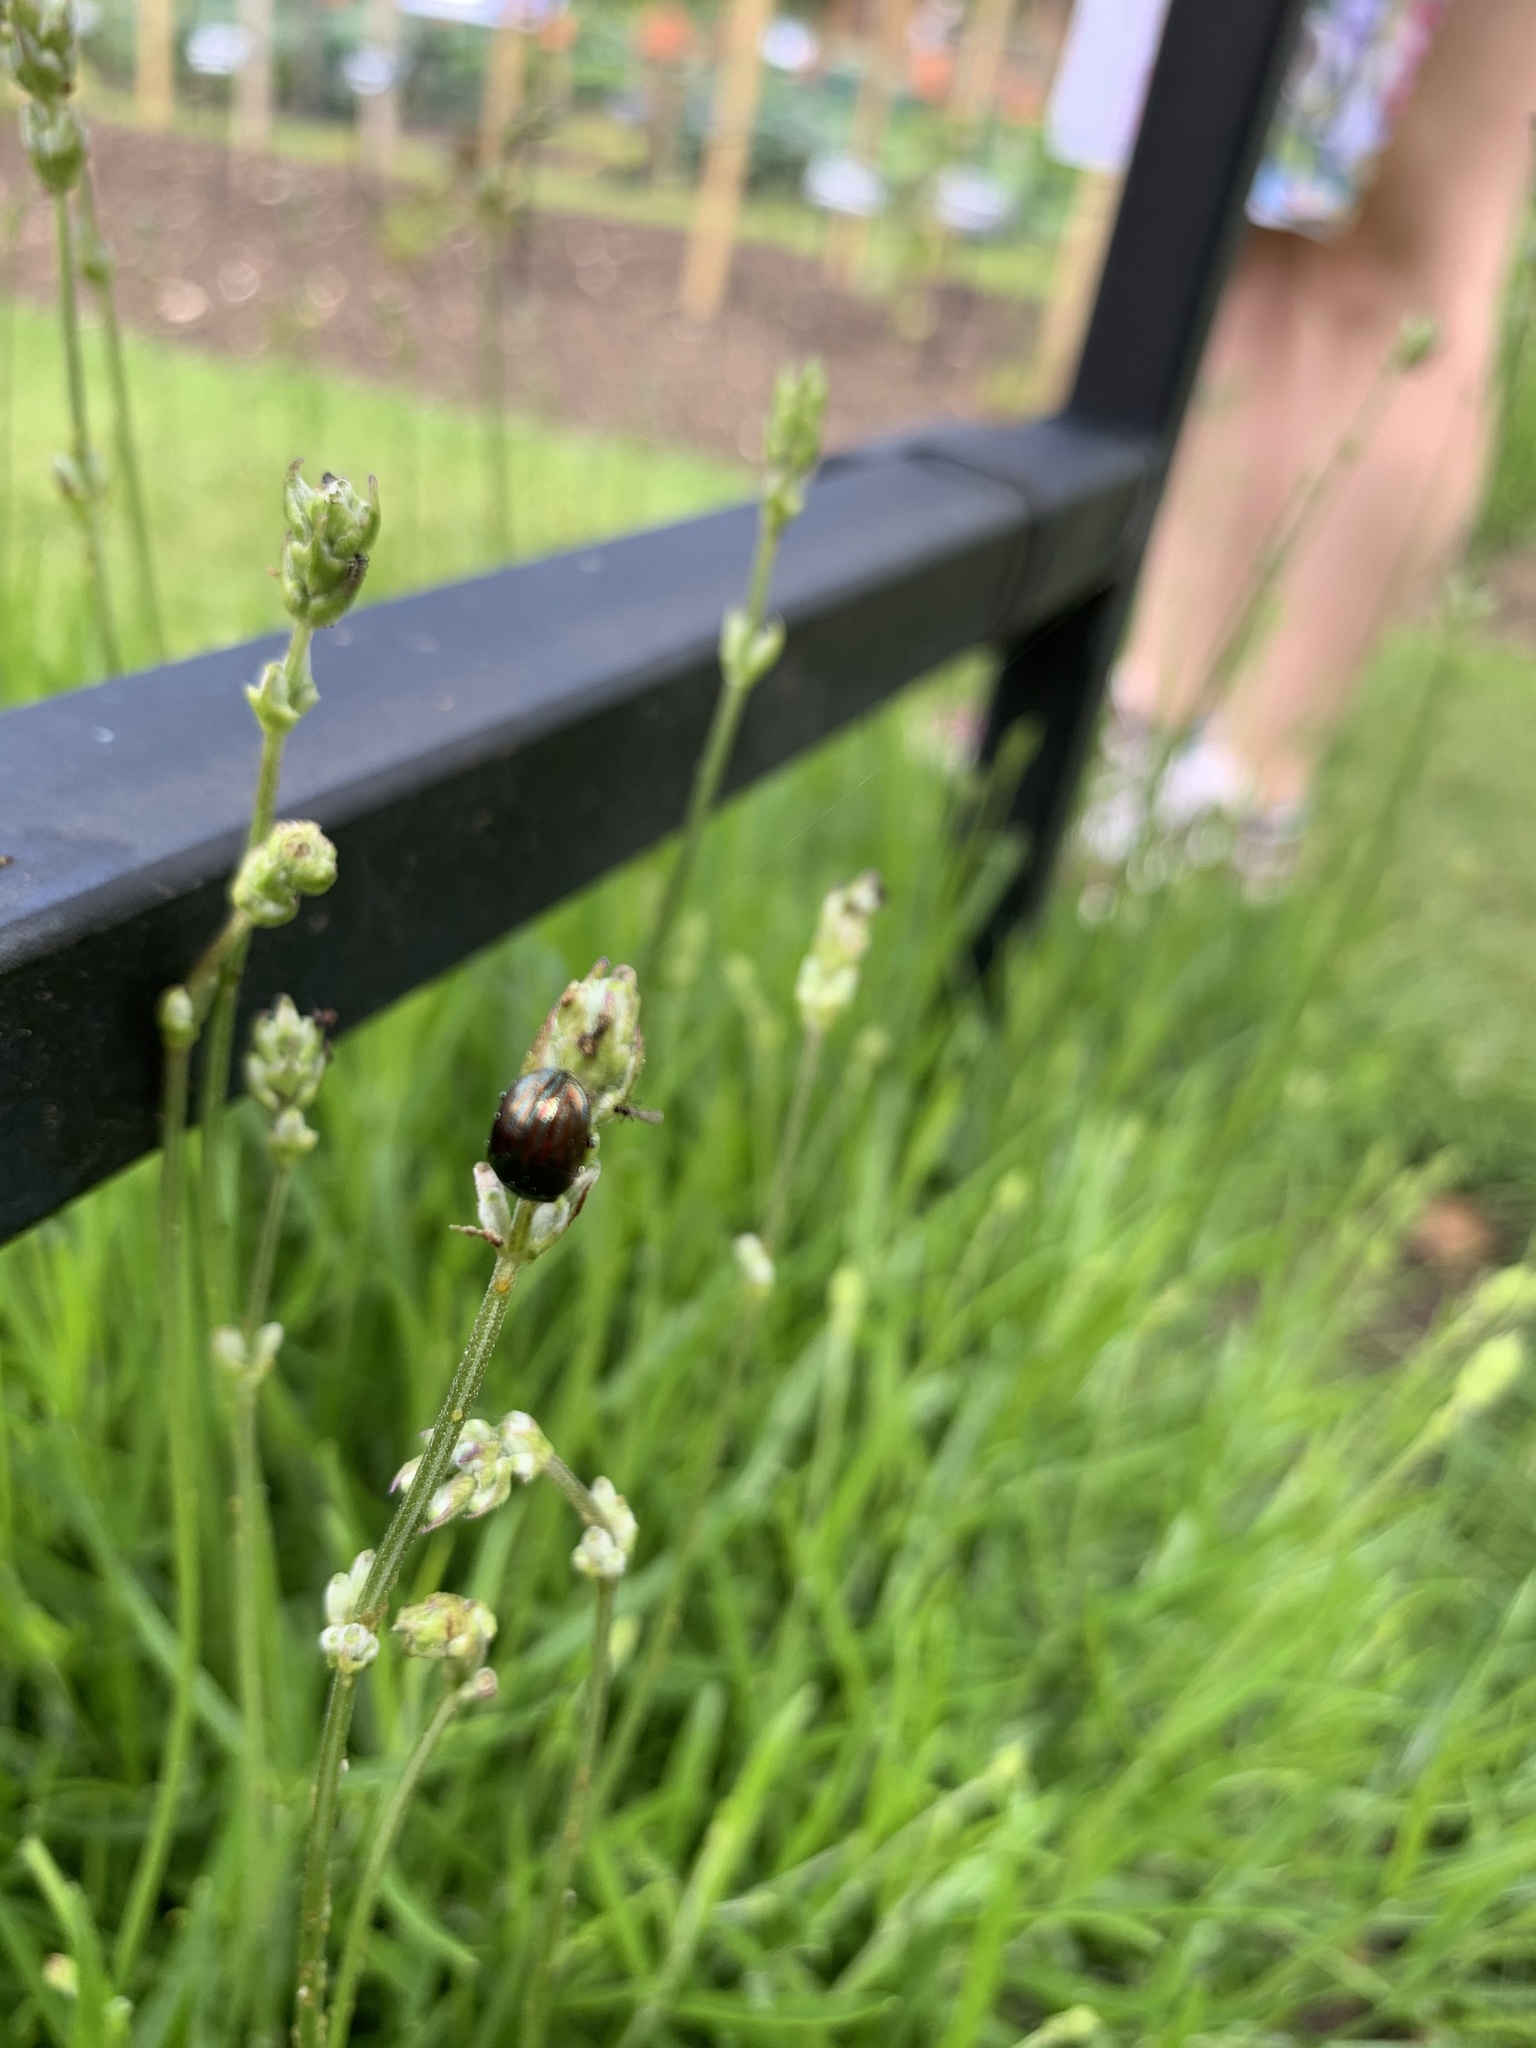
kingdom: Animalia
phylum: Arthropoda
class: Insecta
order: Coleoptera
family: Chrysomelidae
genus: Chrysolina
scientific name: Chrysolina americana
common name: Rosemary beetle
